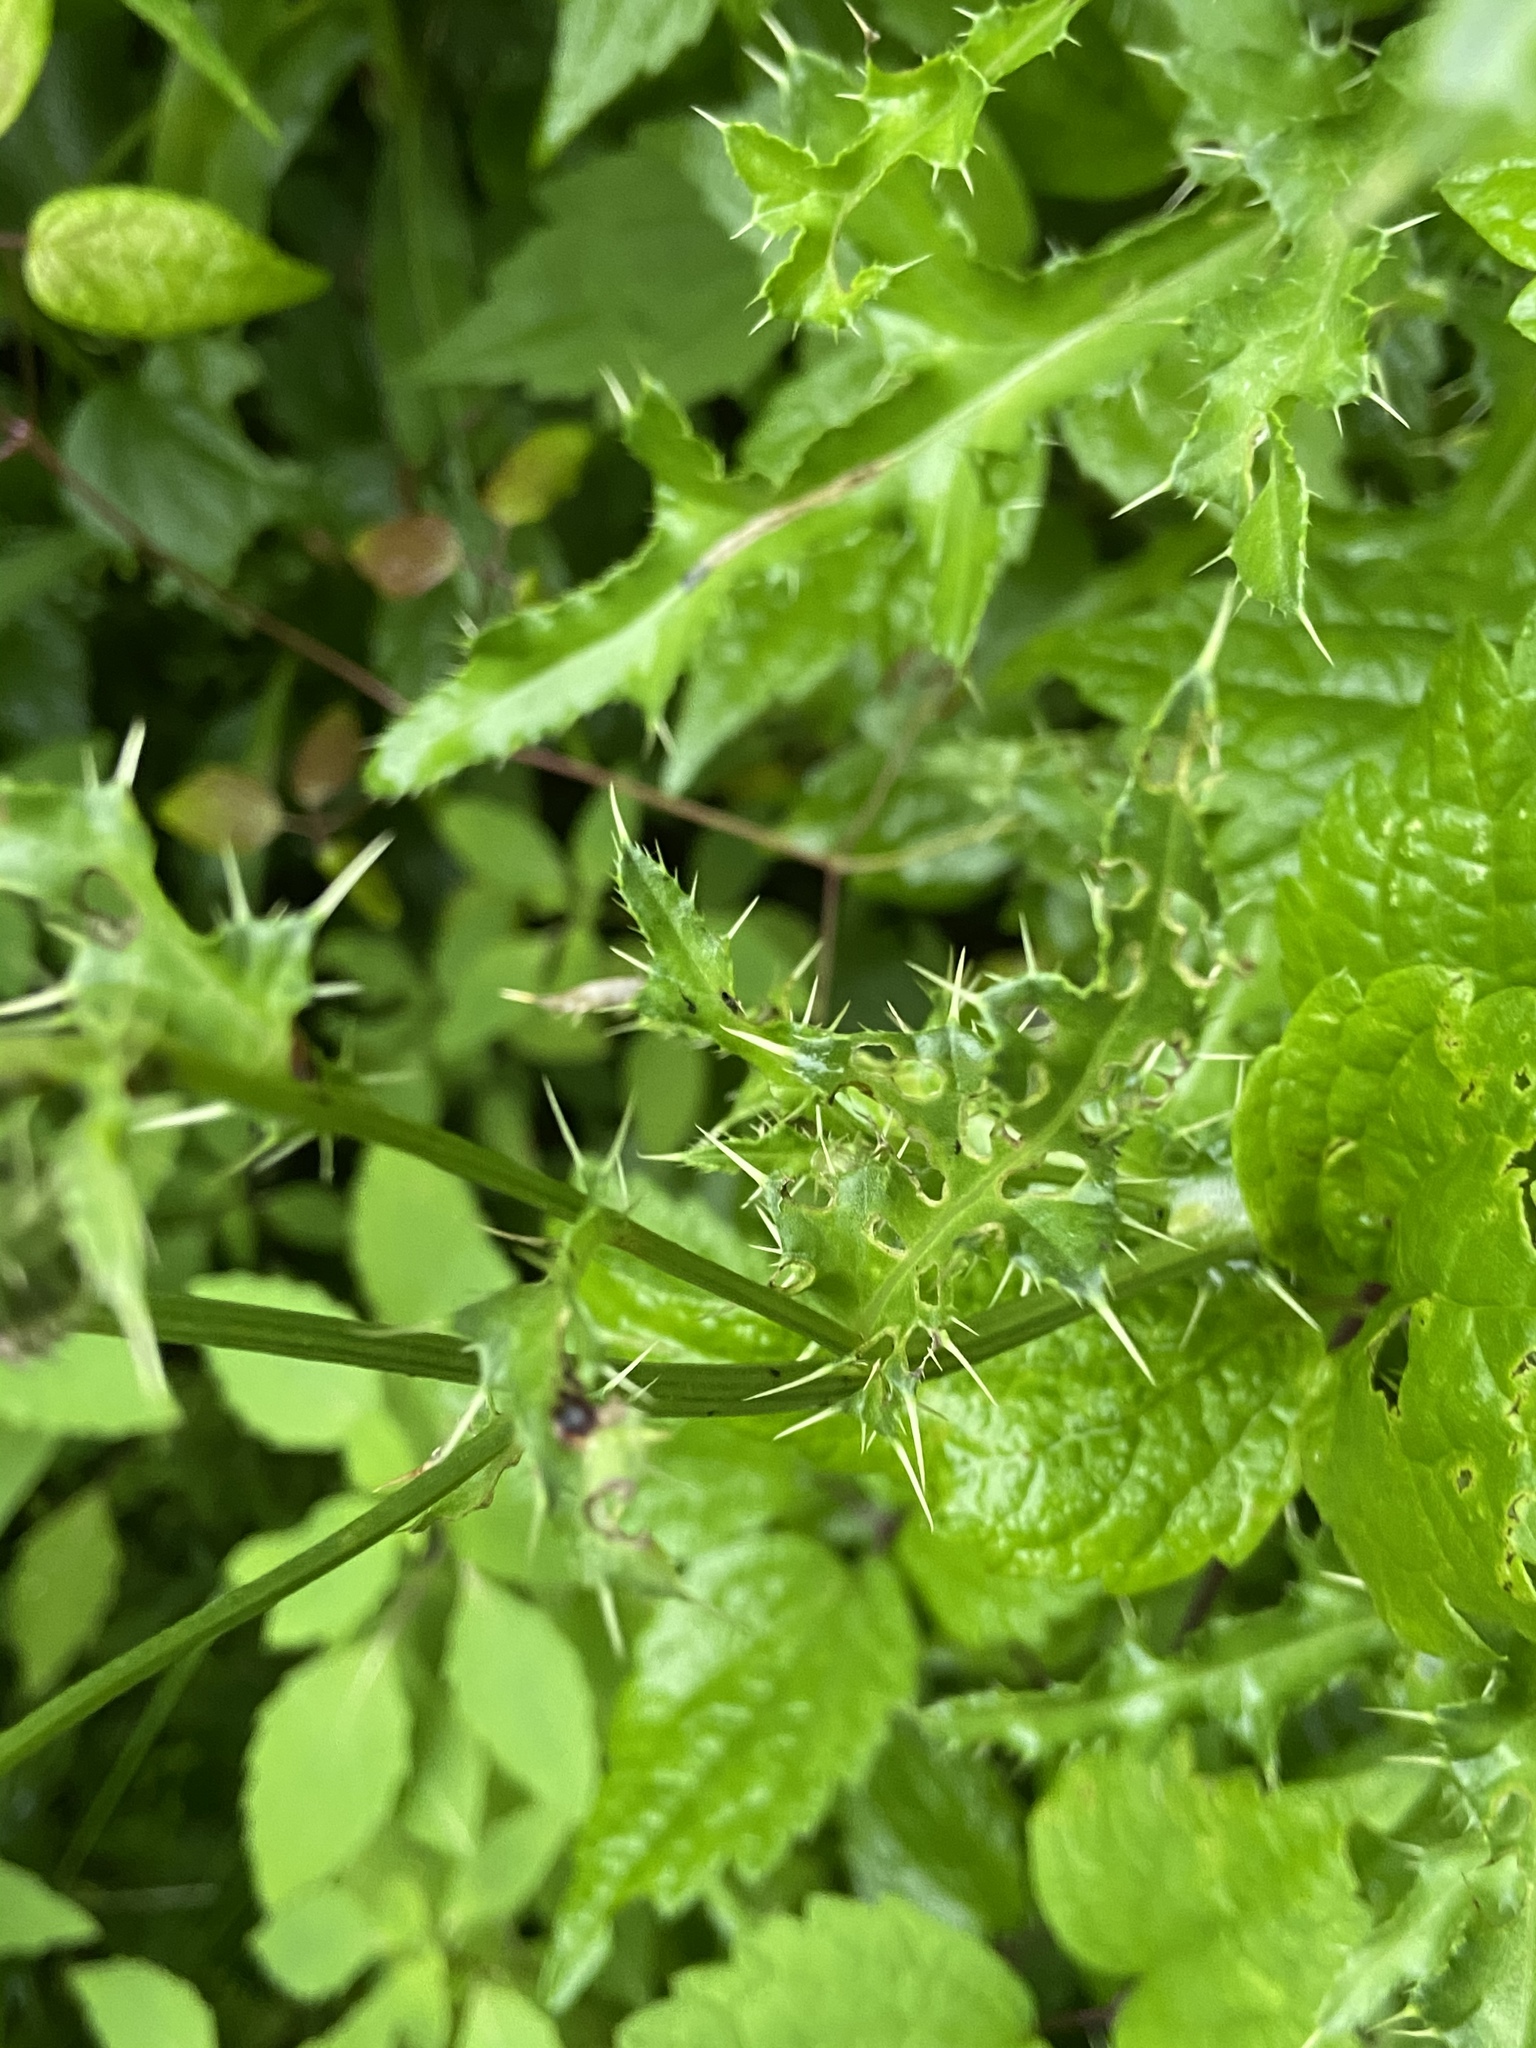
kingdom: Plantae
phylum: Tracheophyta
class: Magnoliopsida
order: Asterales
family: Asteraceae
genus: Cirsium
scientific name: Cirsium arvense
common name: Creeping thistle
